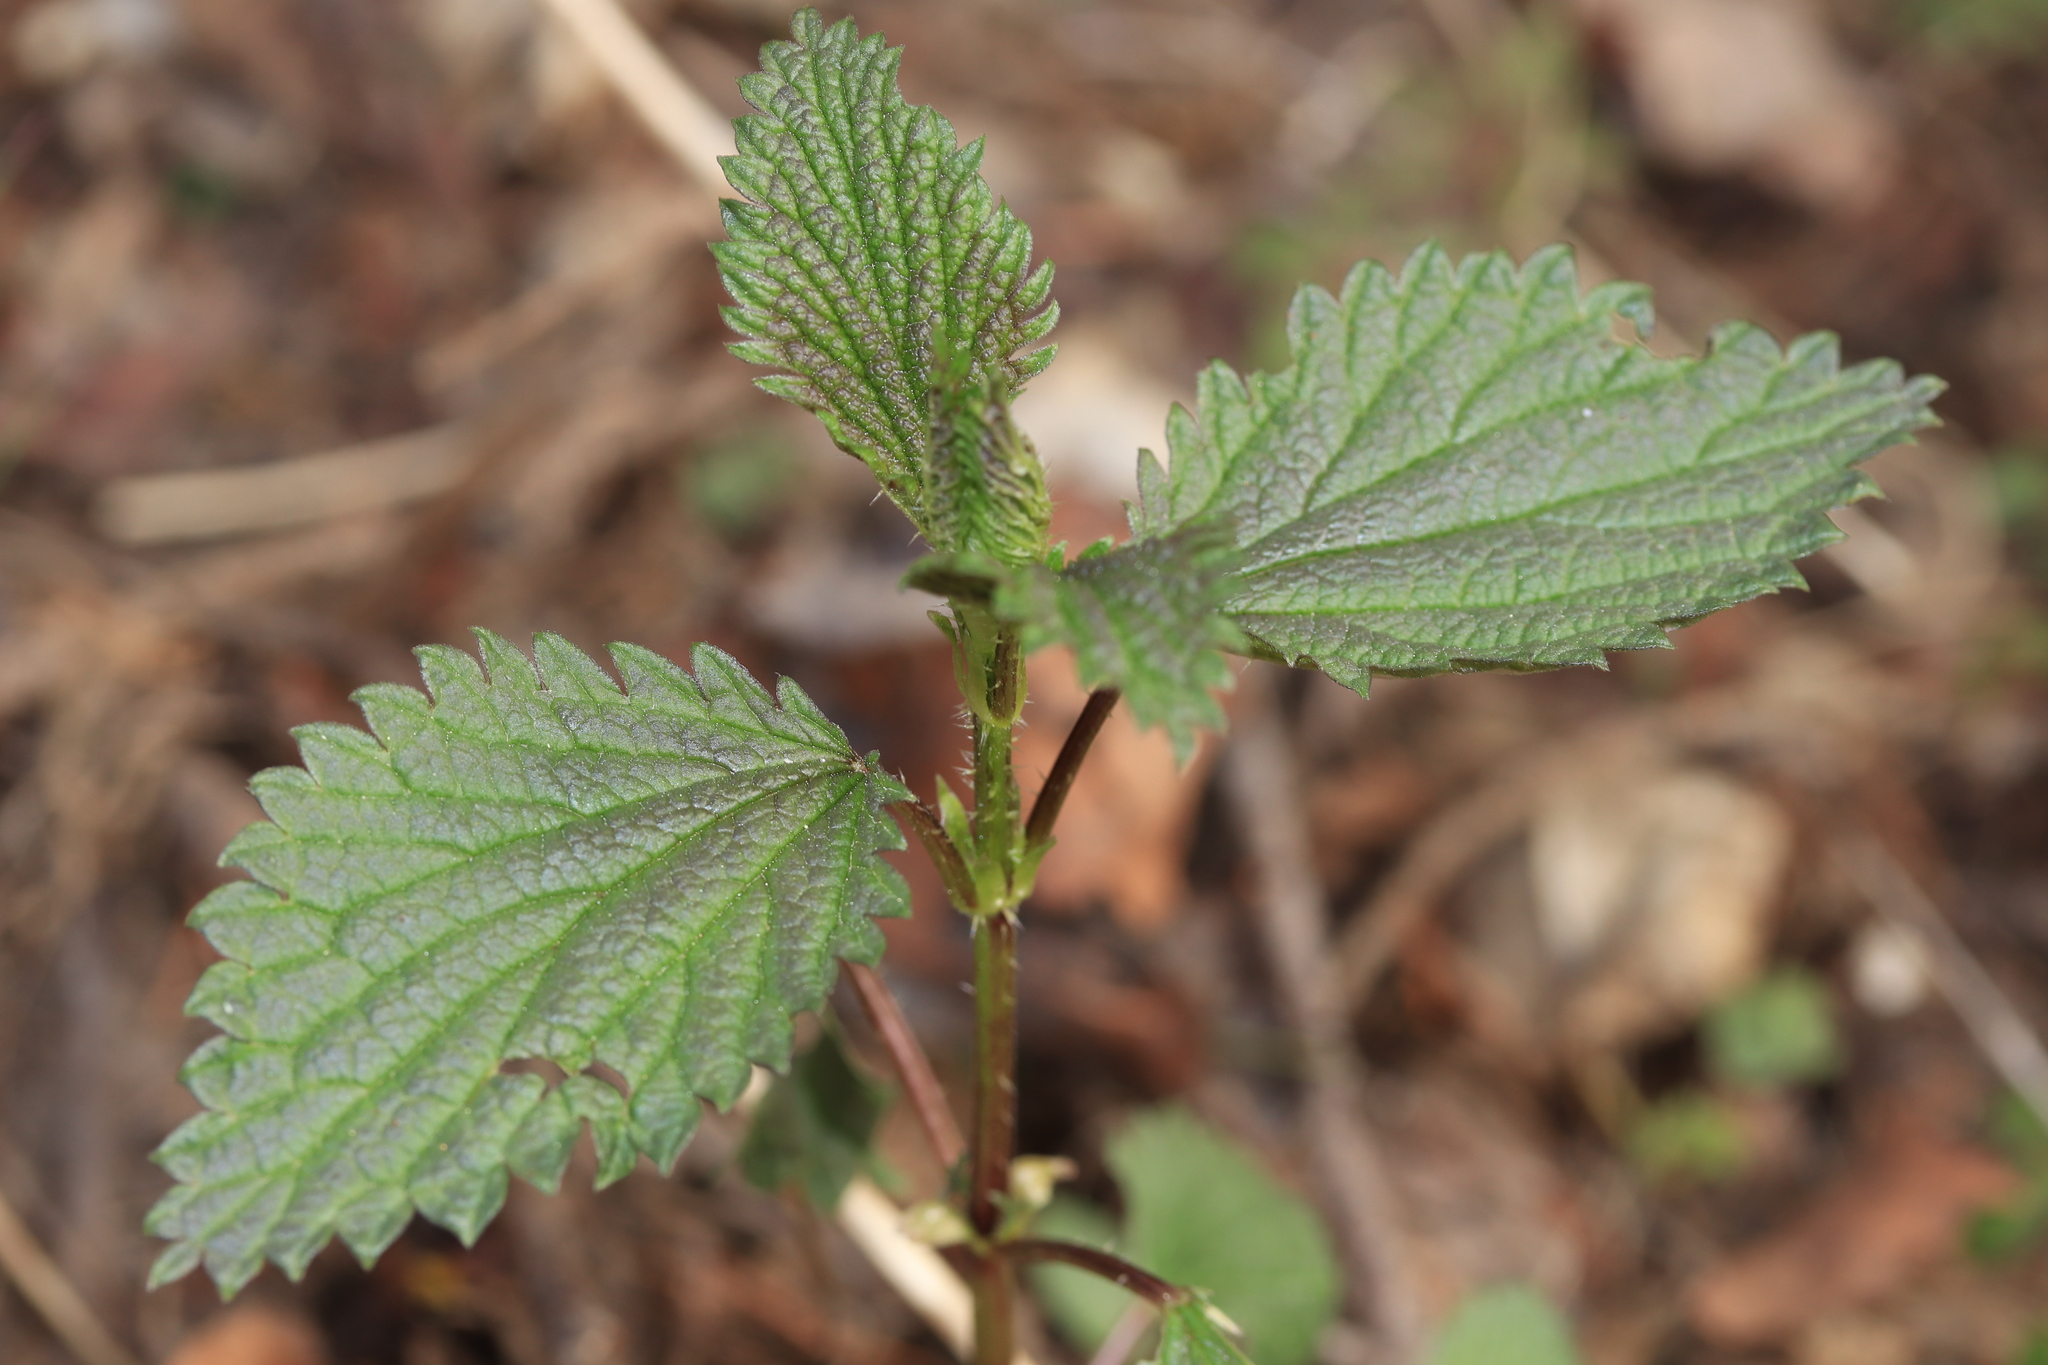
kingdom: Plantae
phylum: Tracheophyta
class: Magnoliopsida
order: Rosales
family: Urticaceae
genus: Urtica
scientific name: Urtica gracilis
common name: Slender stinging nettle
